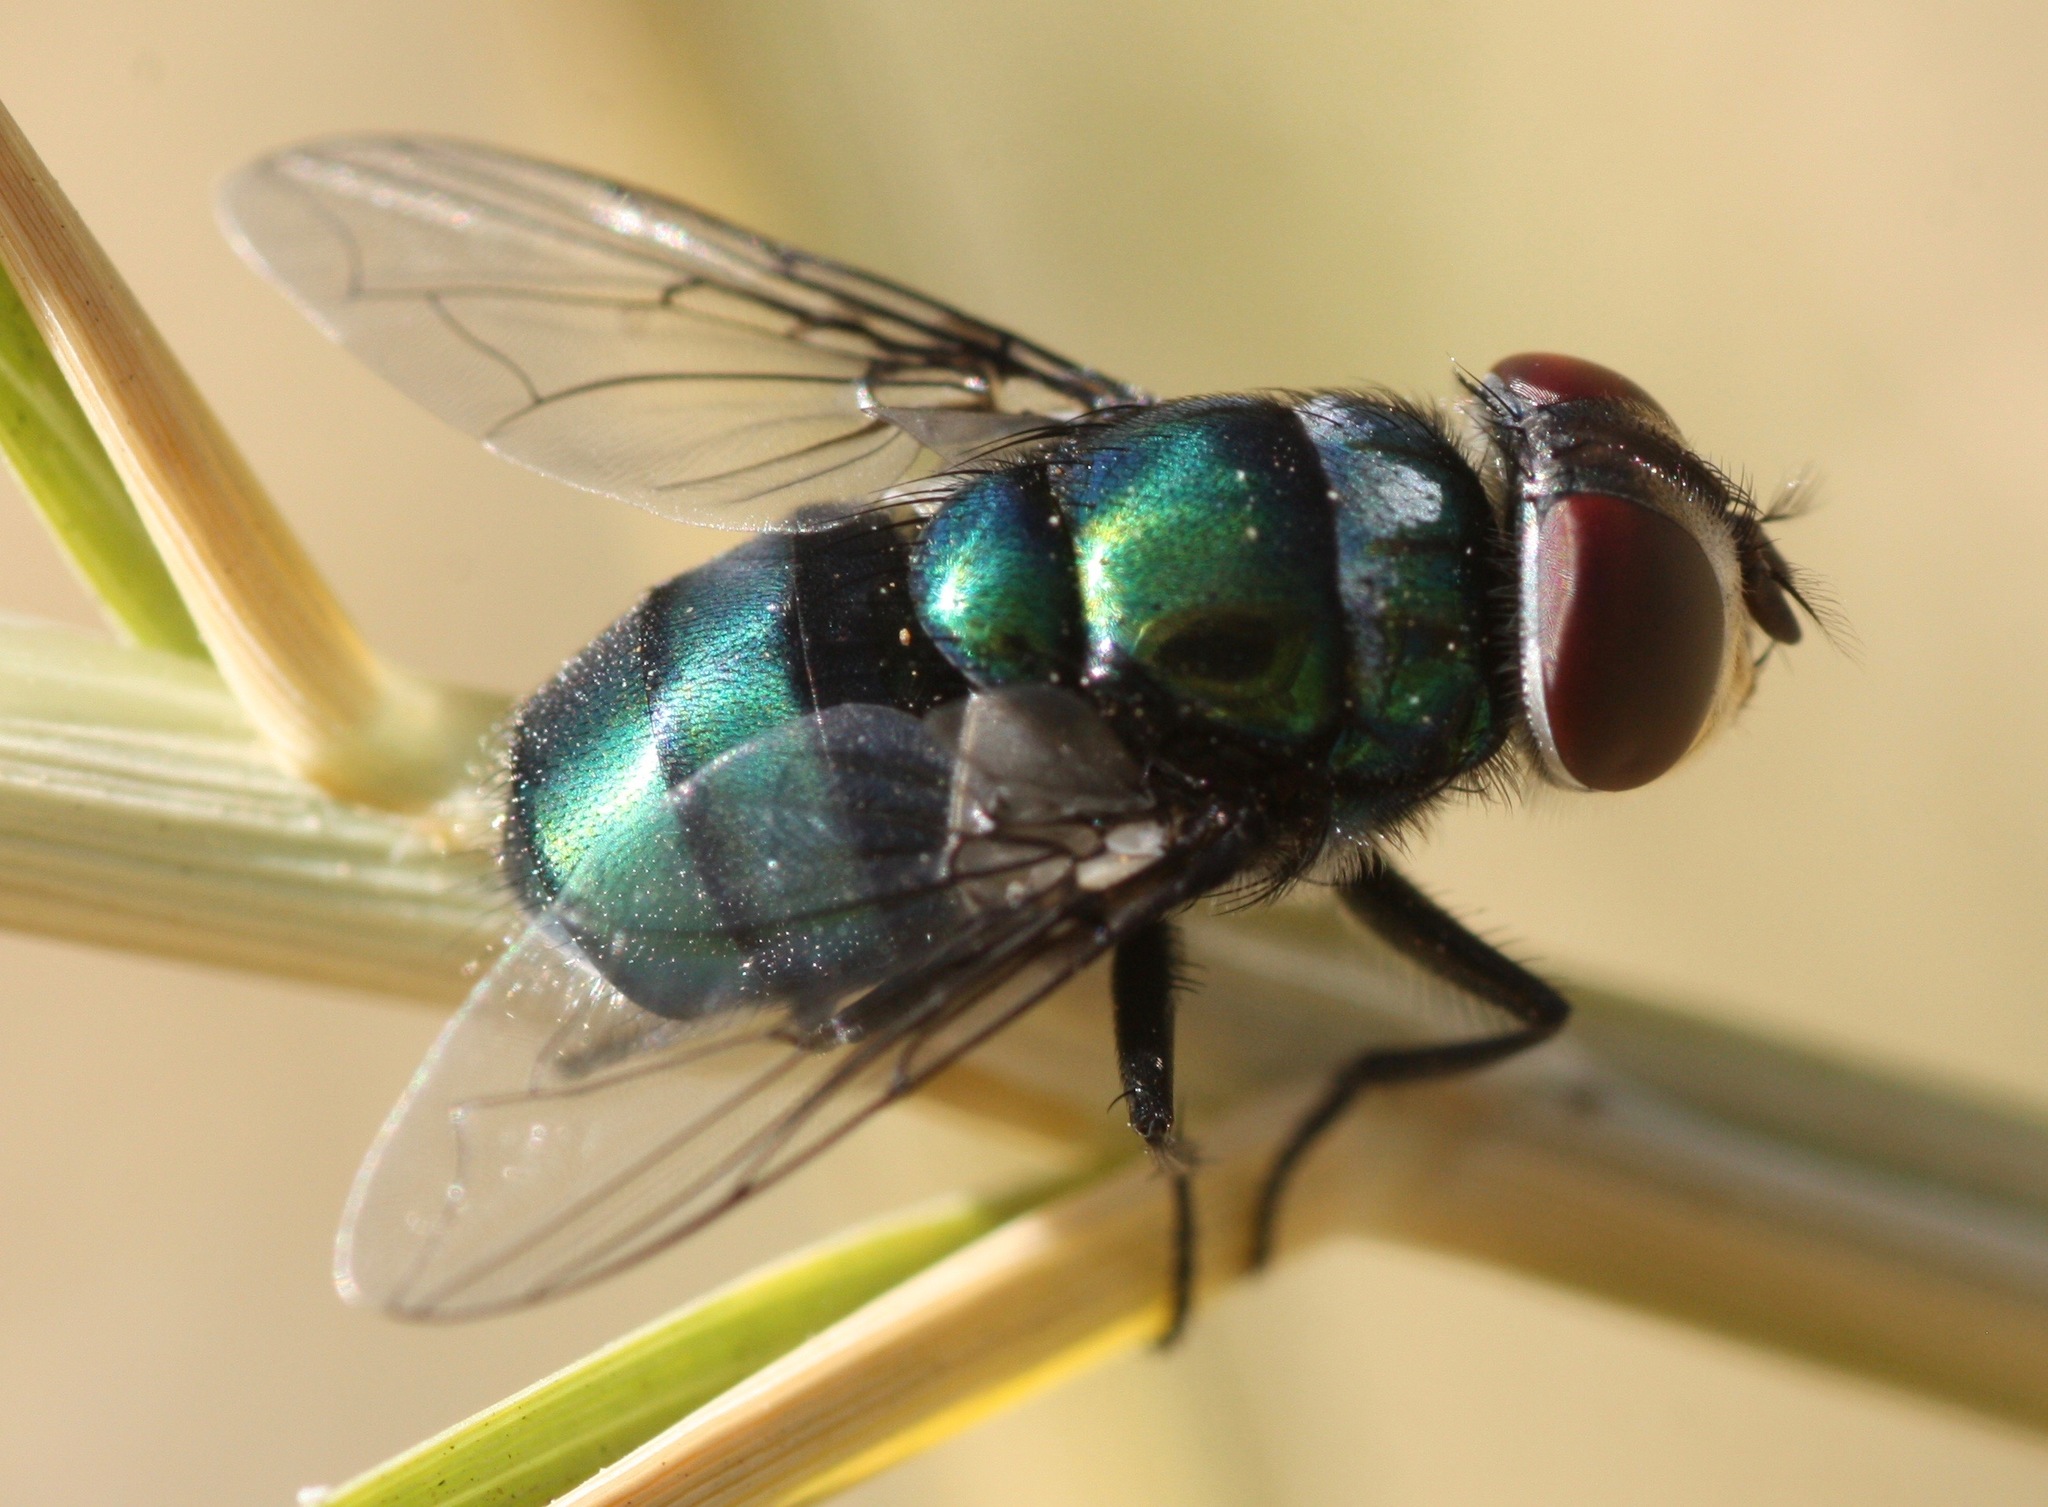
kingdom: Animalia
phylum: Arthropoda
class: Insecta
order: Diptera
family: Calliphoridae
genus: Chrysomya
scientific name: Chrysomya rufifacies
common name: Blow fly
